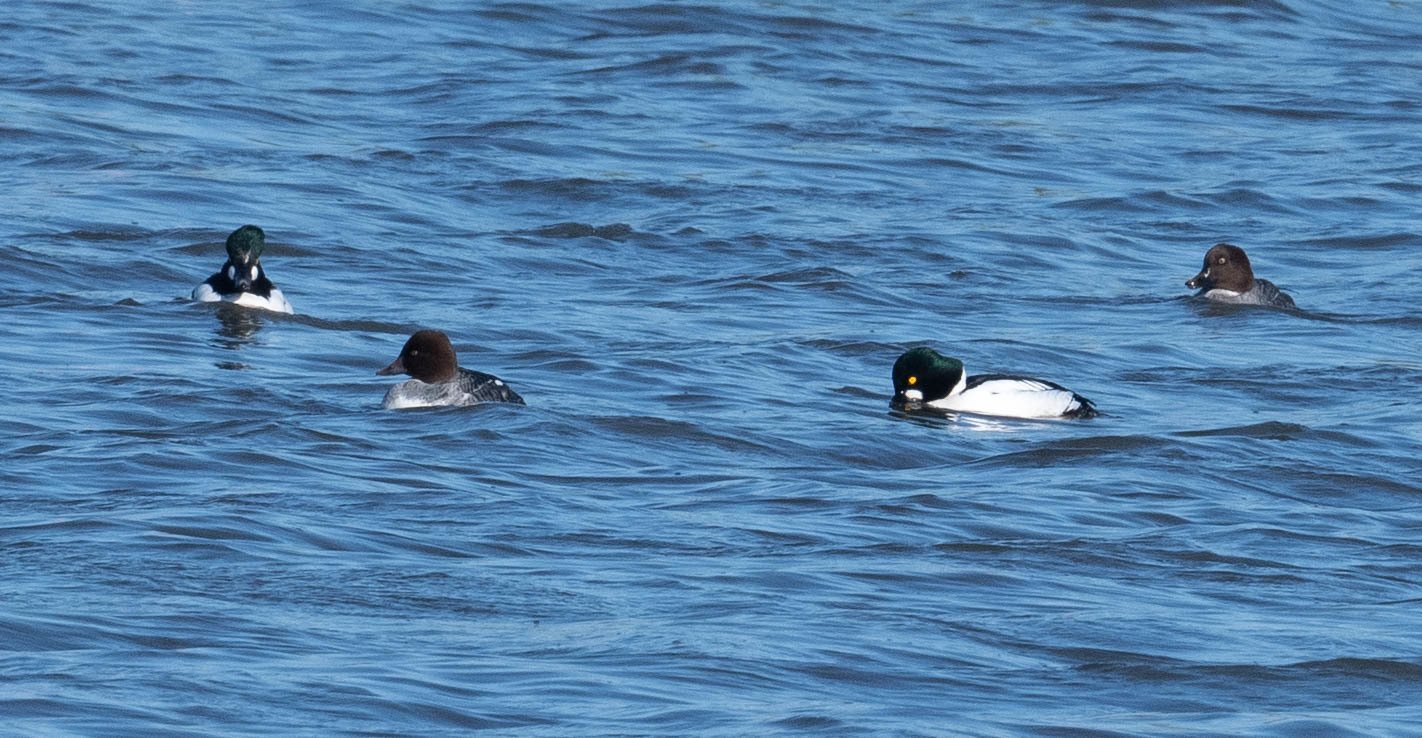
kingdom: Animalia
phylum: Chordata
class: Aves
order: Anseriformes
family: Anatidae
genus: Bucephala
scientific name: Bucephala clangula
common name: Common goldeneye
